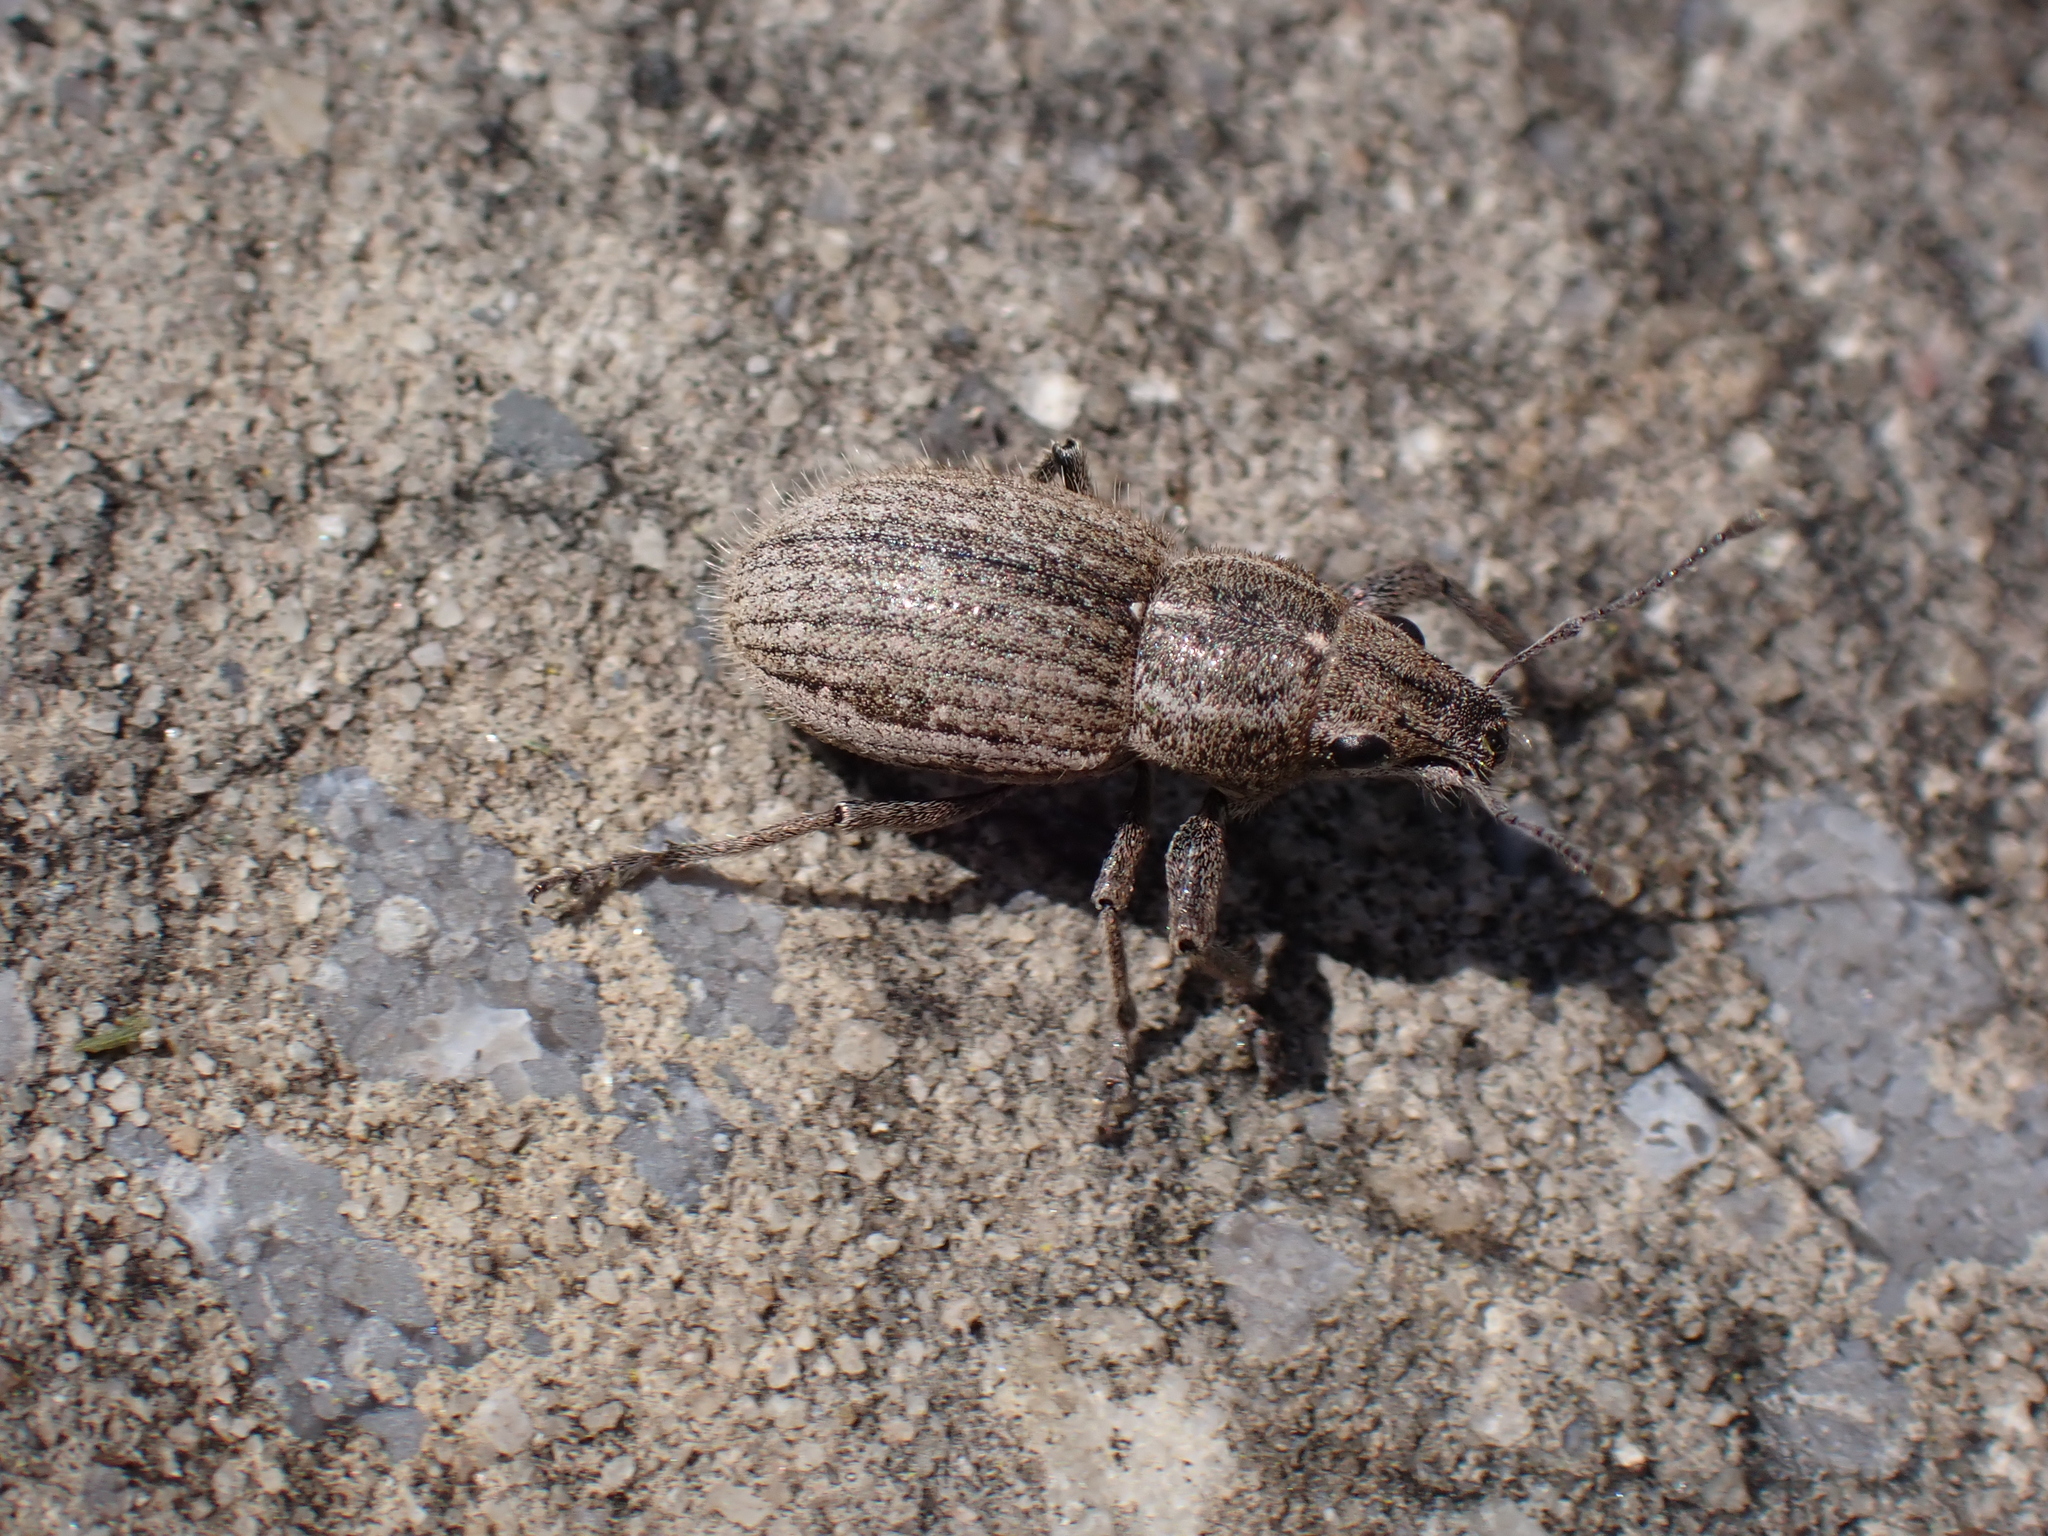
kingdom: Animalia
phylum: Arthropoda
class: Insecta
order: Coleoptera
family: Curculionidae
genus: Naupactus
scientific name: Naupactus leucoloma
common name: Whitefringed beetle
